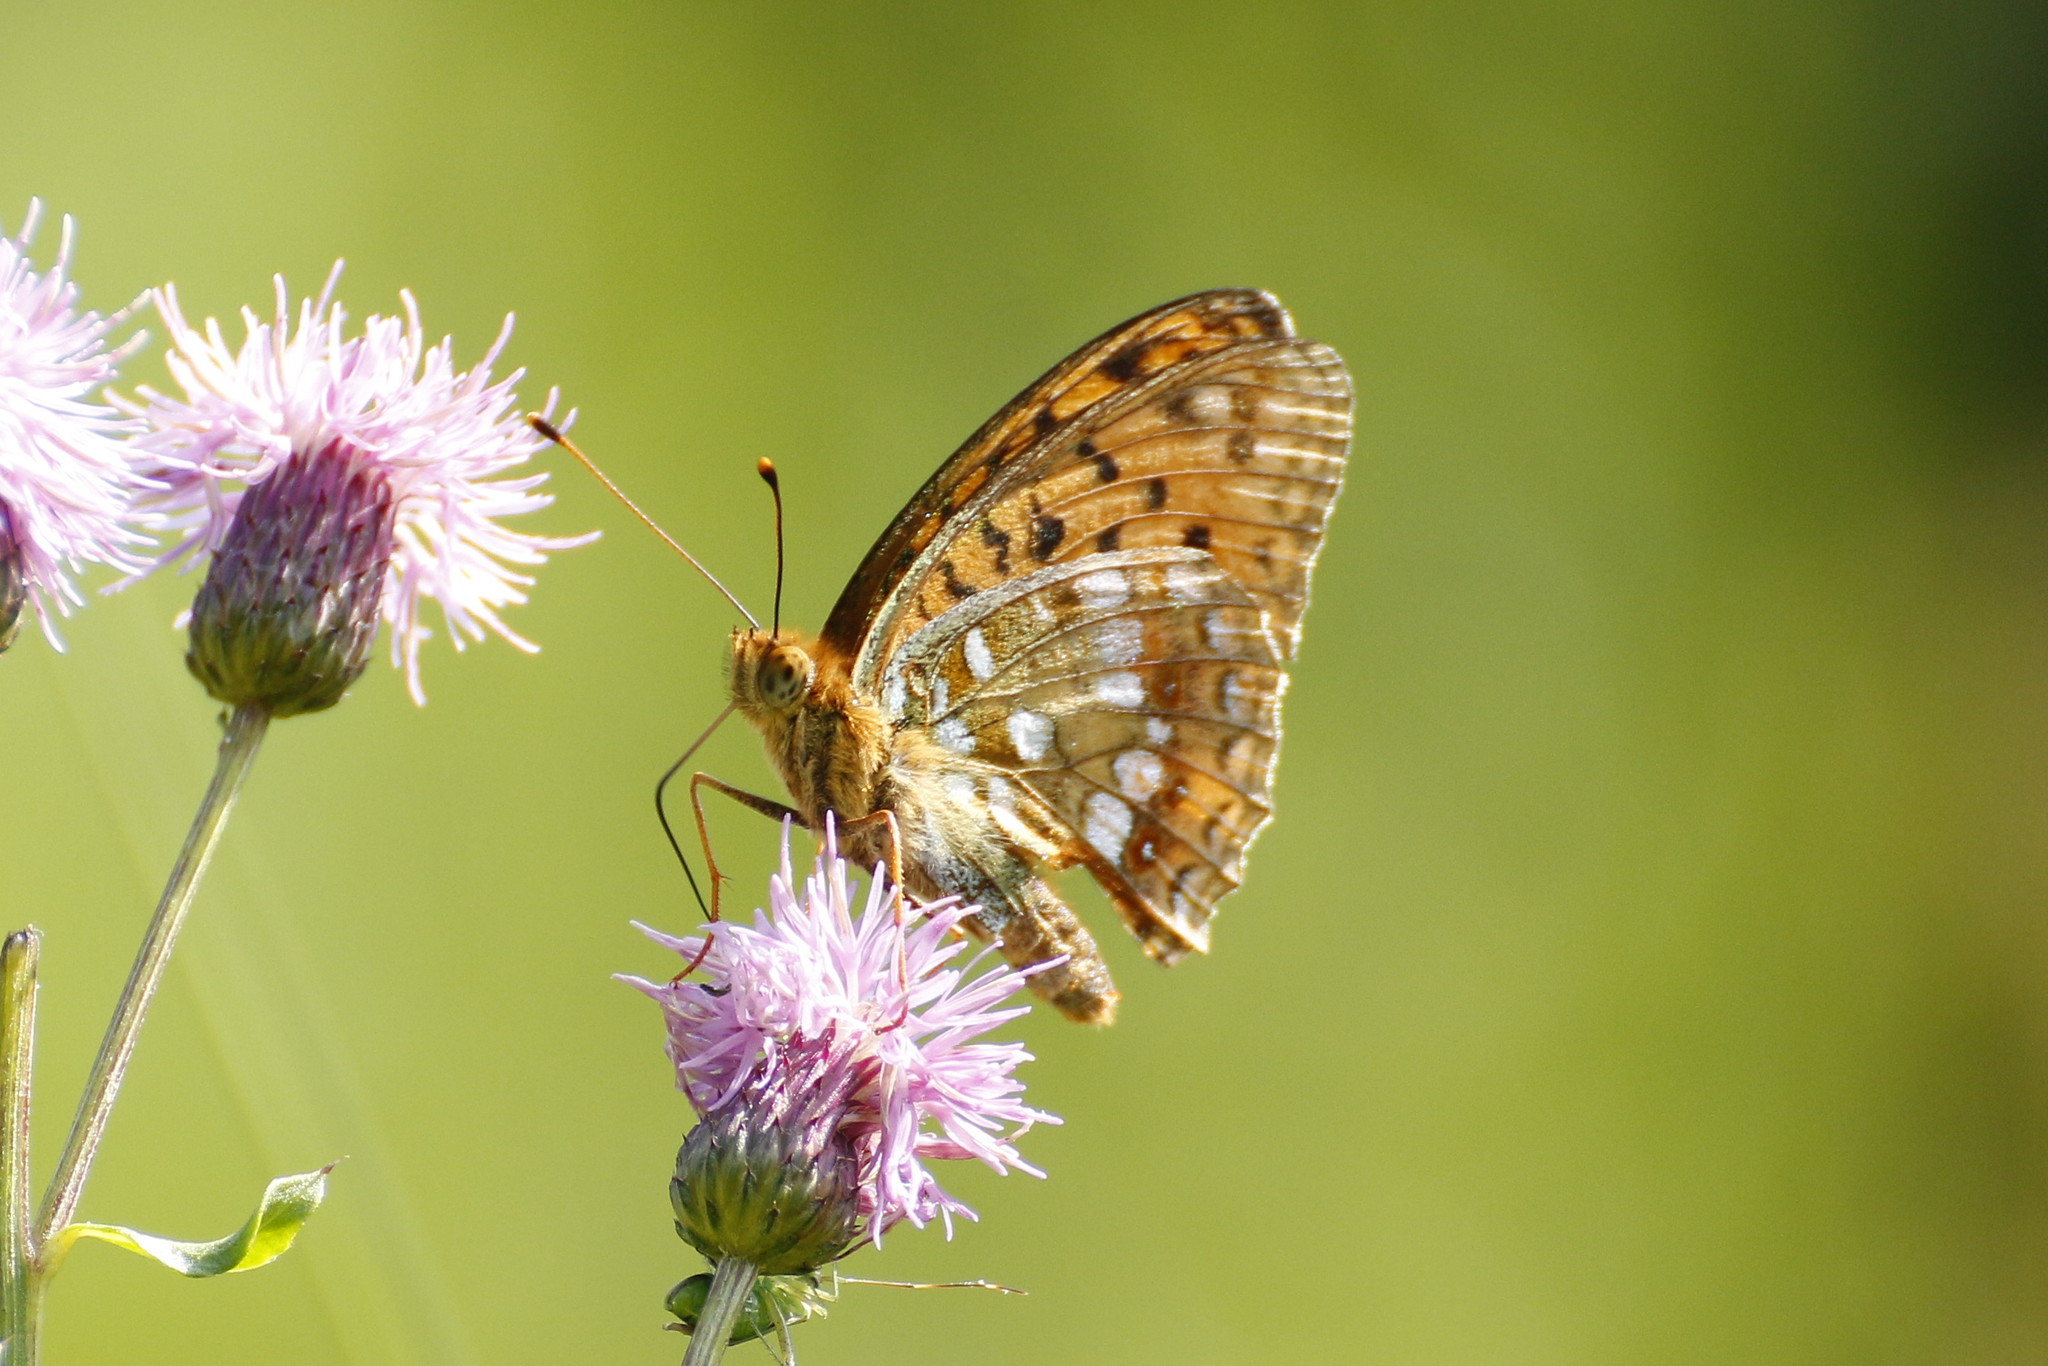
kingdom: Animalia
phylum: Arthropoda
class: Insecta
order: Lepidoptera
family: Nymphalidae
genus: Fabriciana
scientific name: Fabriciana adippe
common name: High brown fritillary
